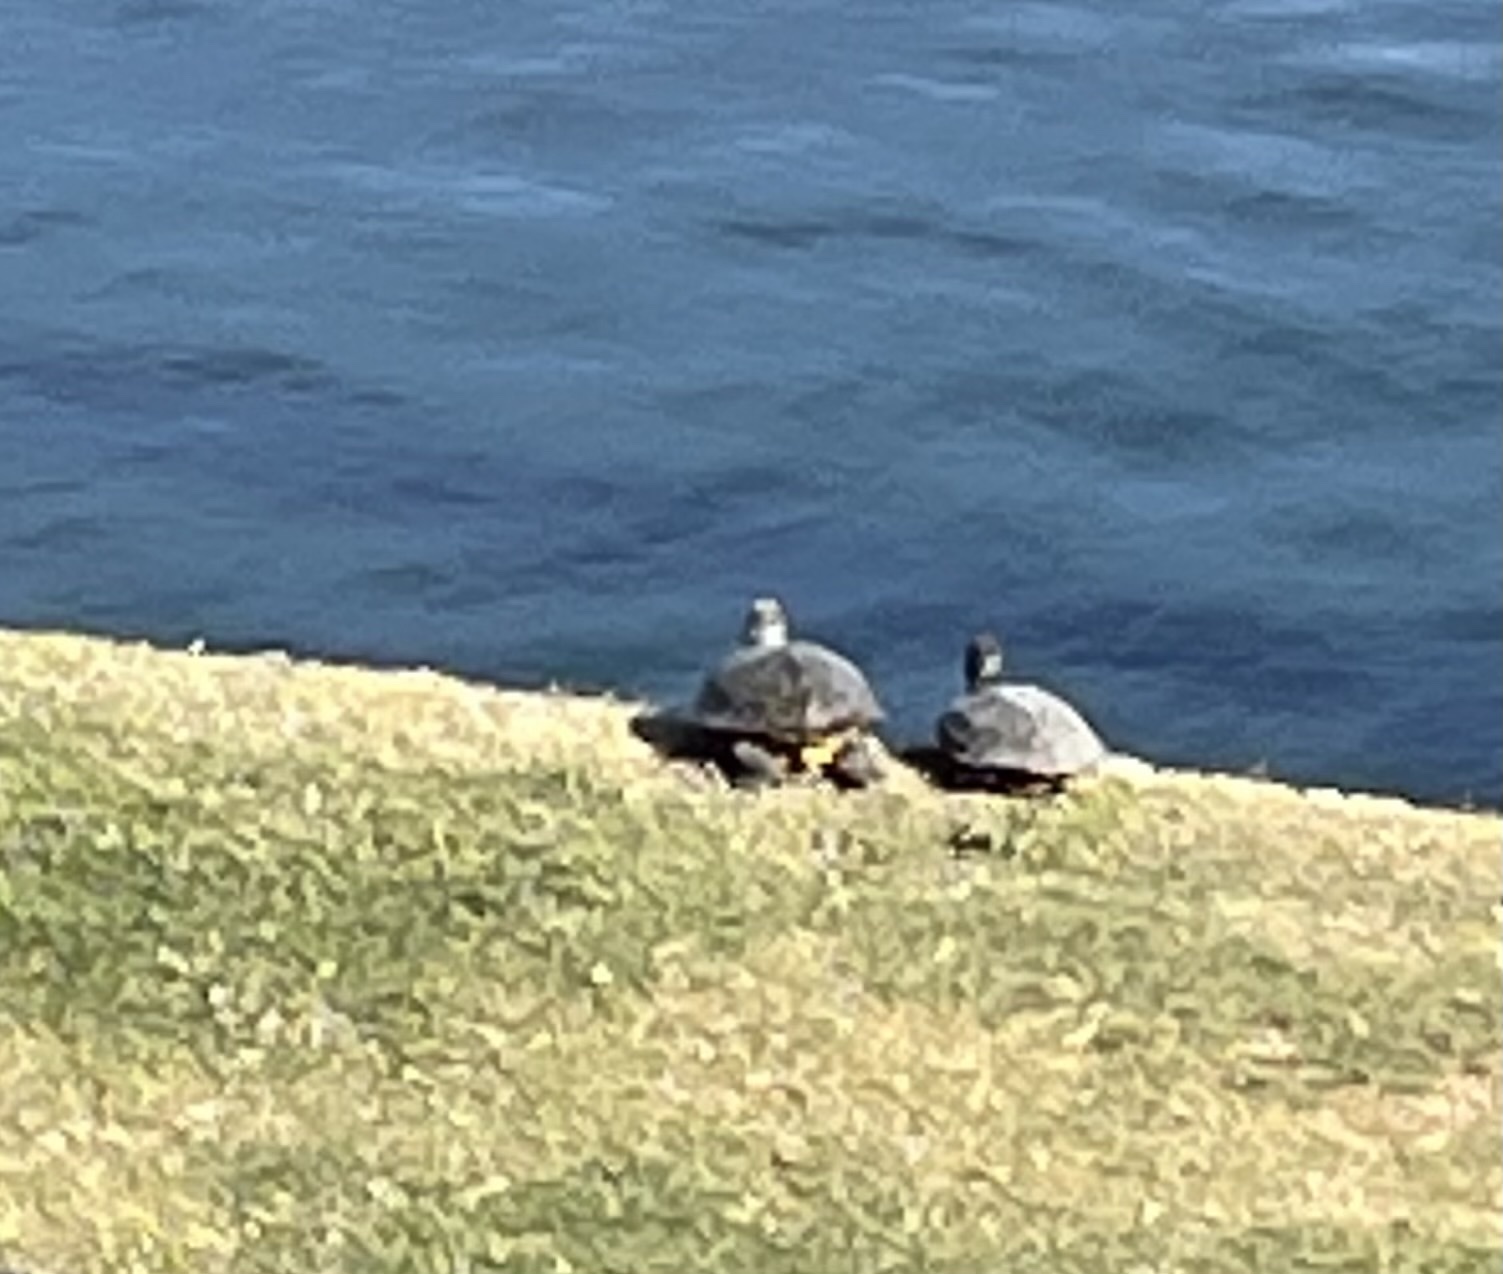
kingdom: Animalia
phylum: Chordata
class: Testudines
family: Emydidae
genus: Trachemys
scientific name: Trachemys scripta
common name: Slider
